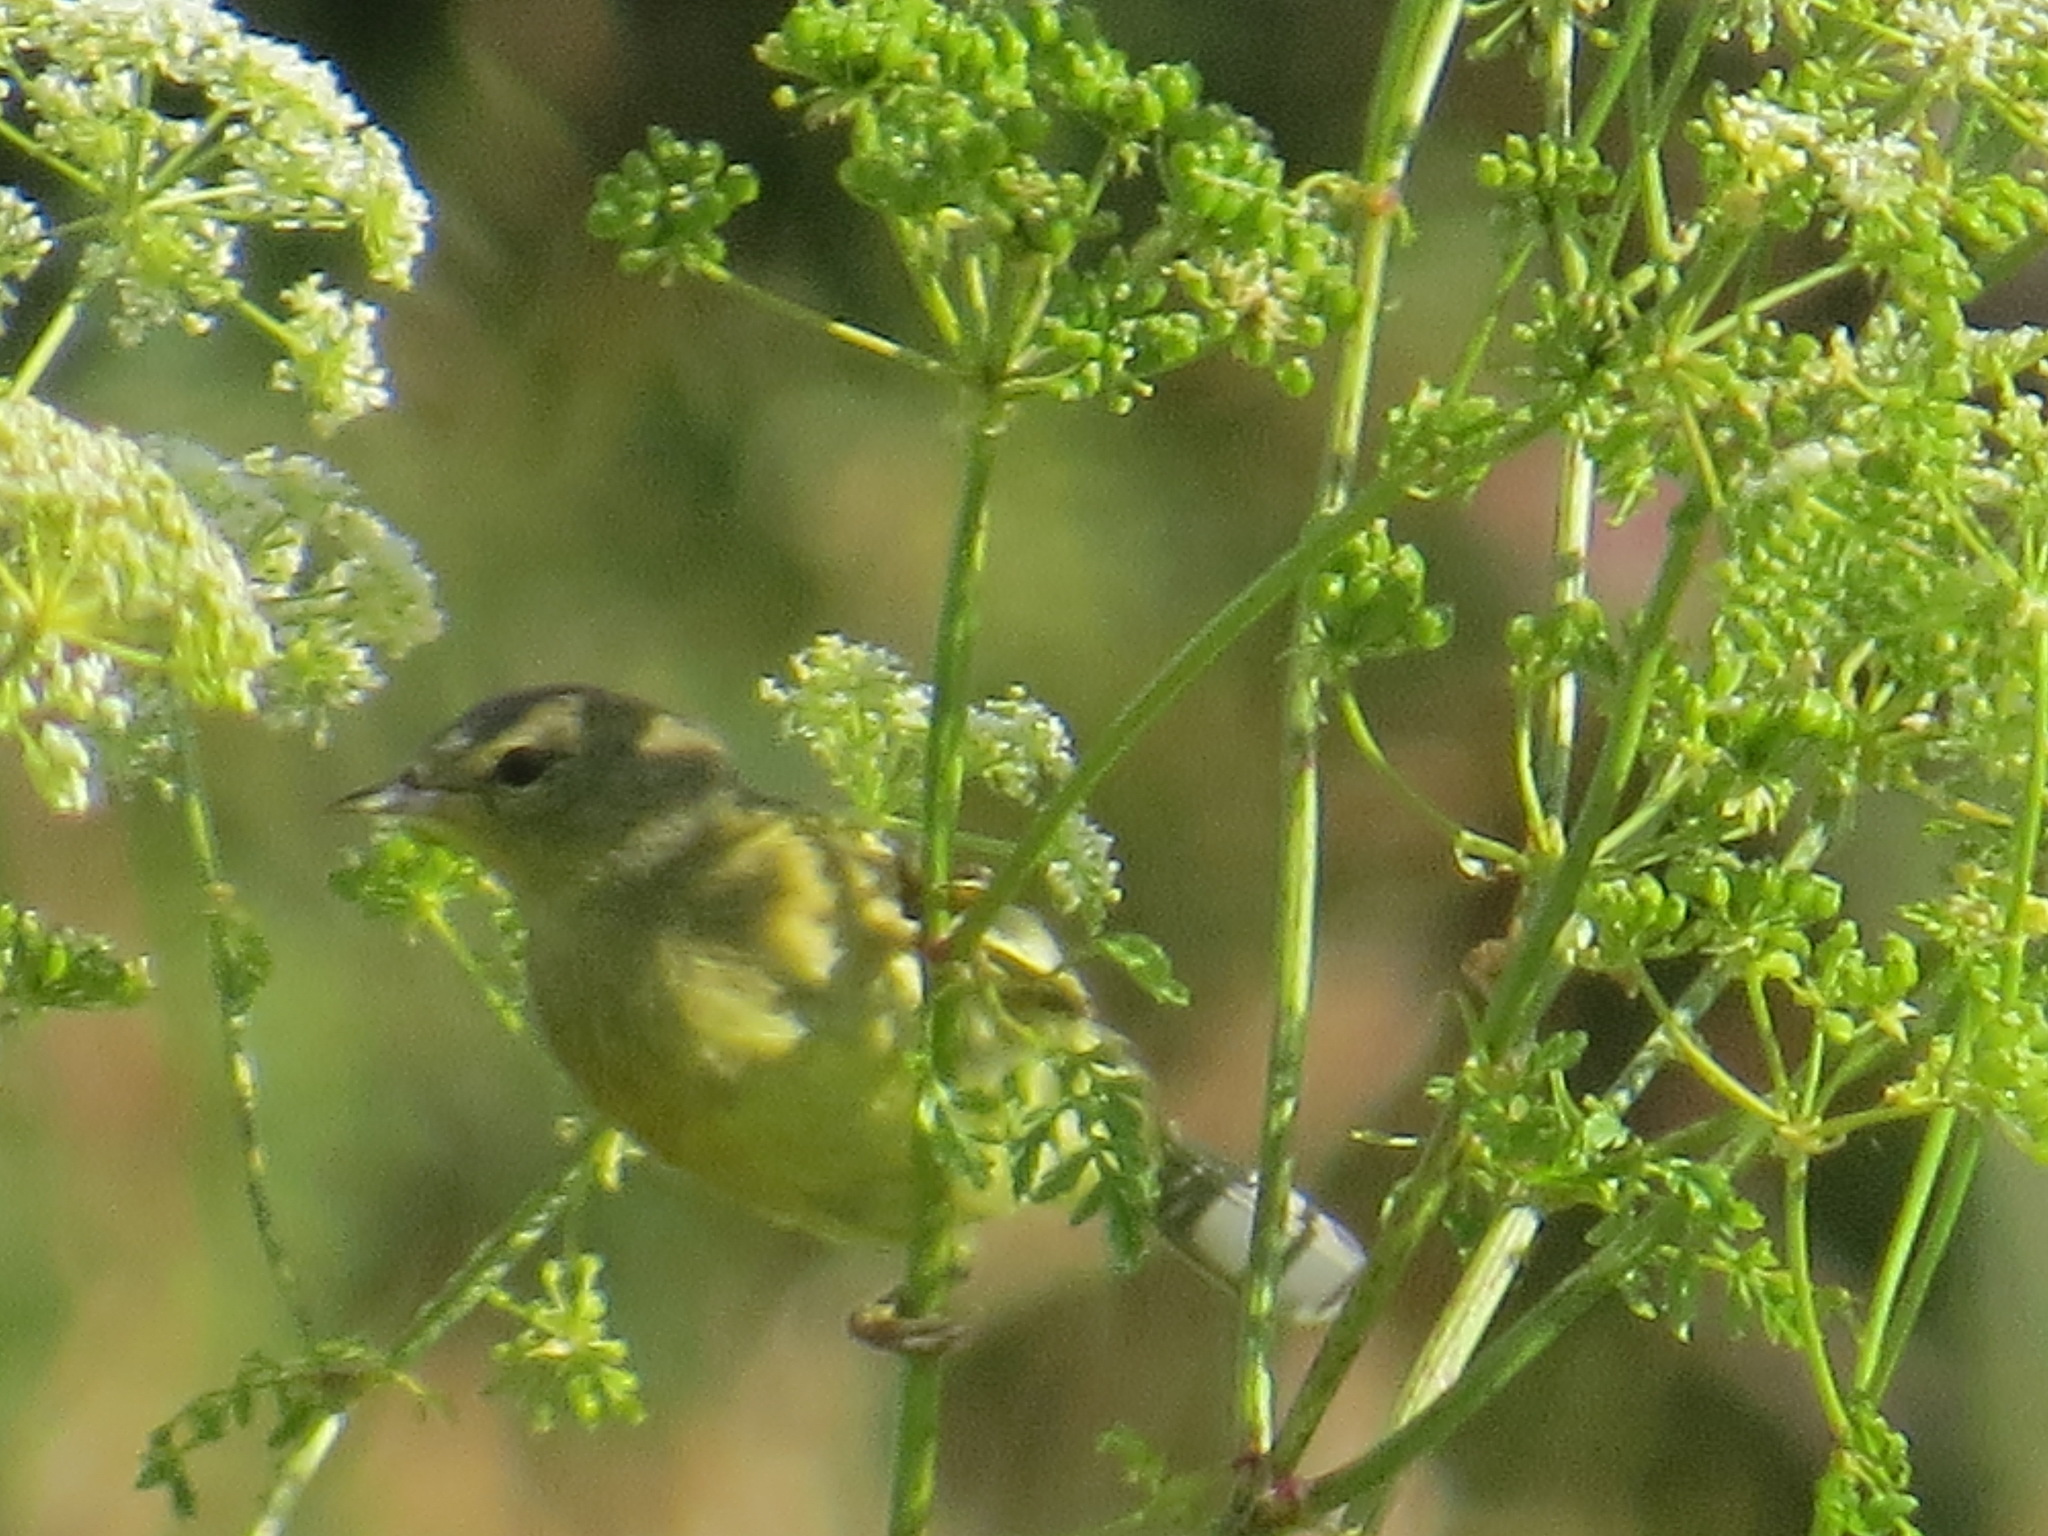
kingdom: Animalia
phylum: Chordata
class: Aves
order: Passeriformes
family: Parulidae
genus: Leiothlypis
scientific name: Leiothlypis celata
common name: Orange-crowned warbler
